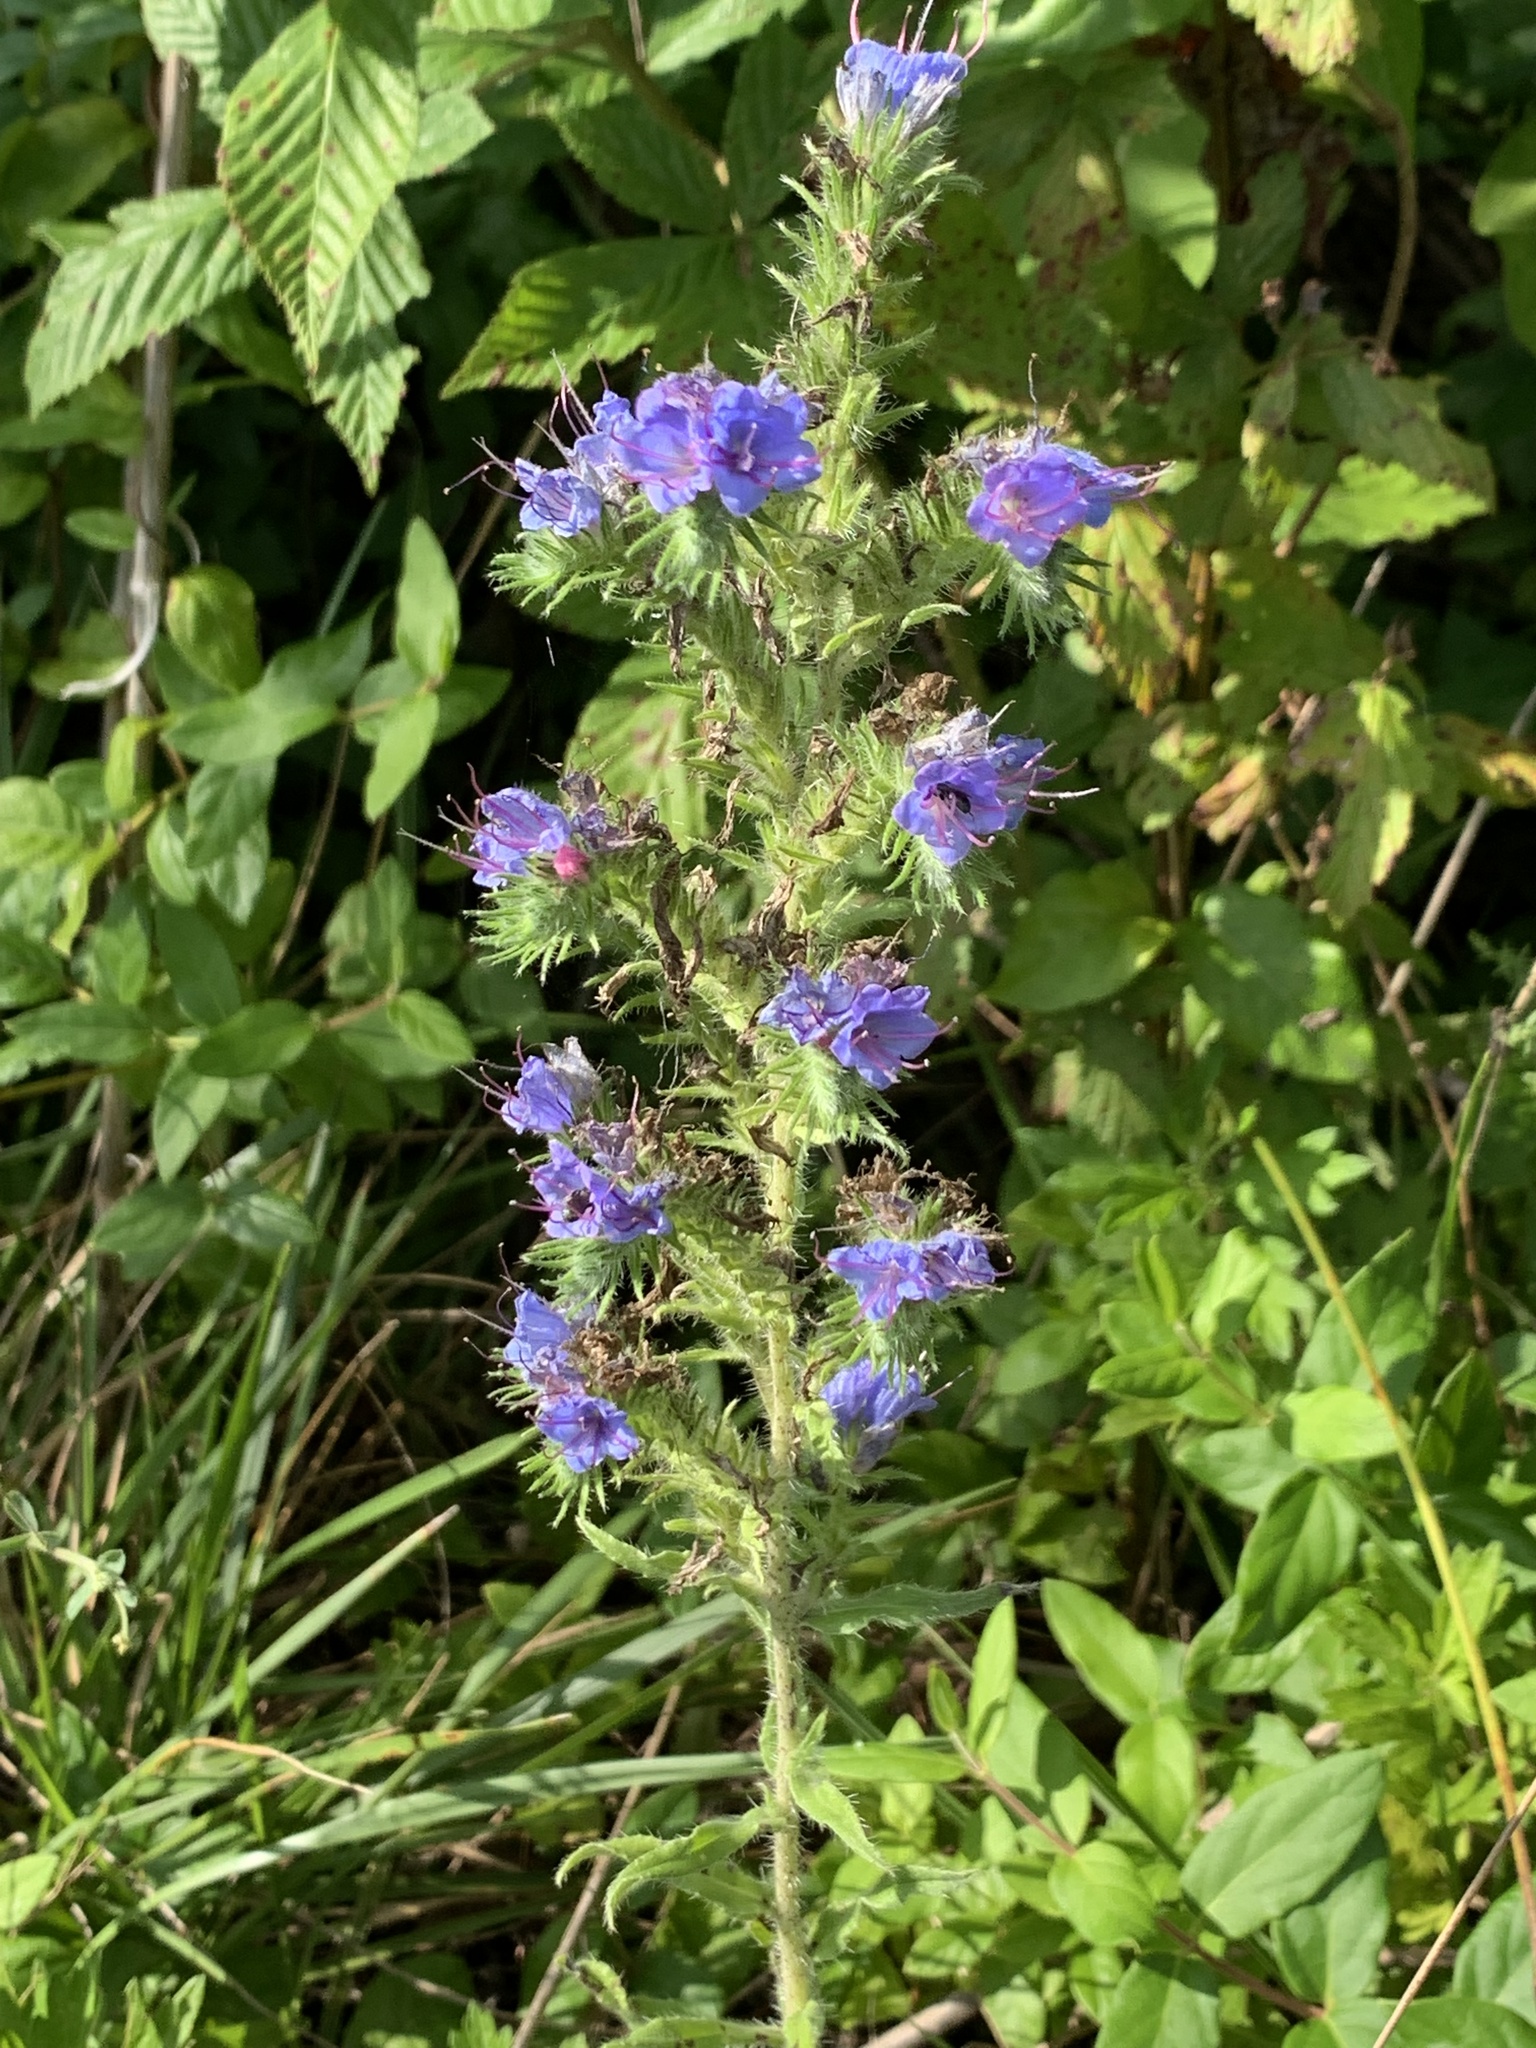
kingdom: Plantae
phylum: Tracheophyta
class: Magnoliopsida
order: Boraginales
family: Boraginaceae
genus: Echium
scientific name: Echium vulgare
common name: Common viper's bugloss
